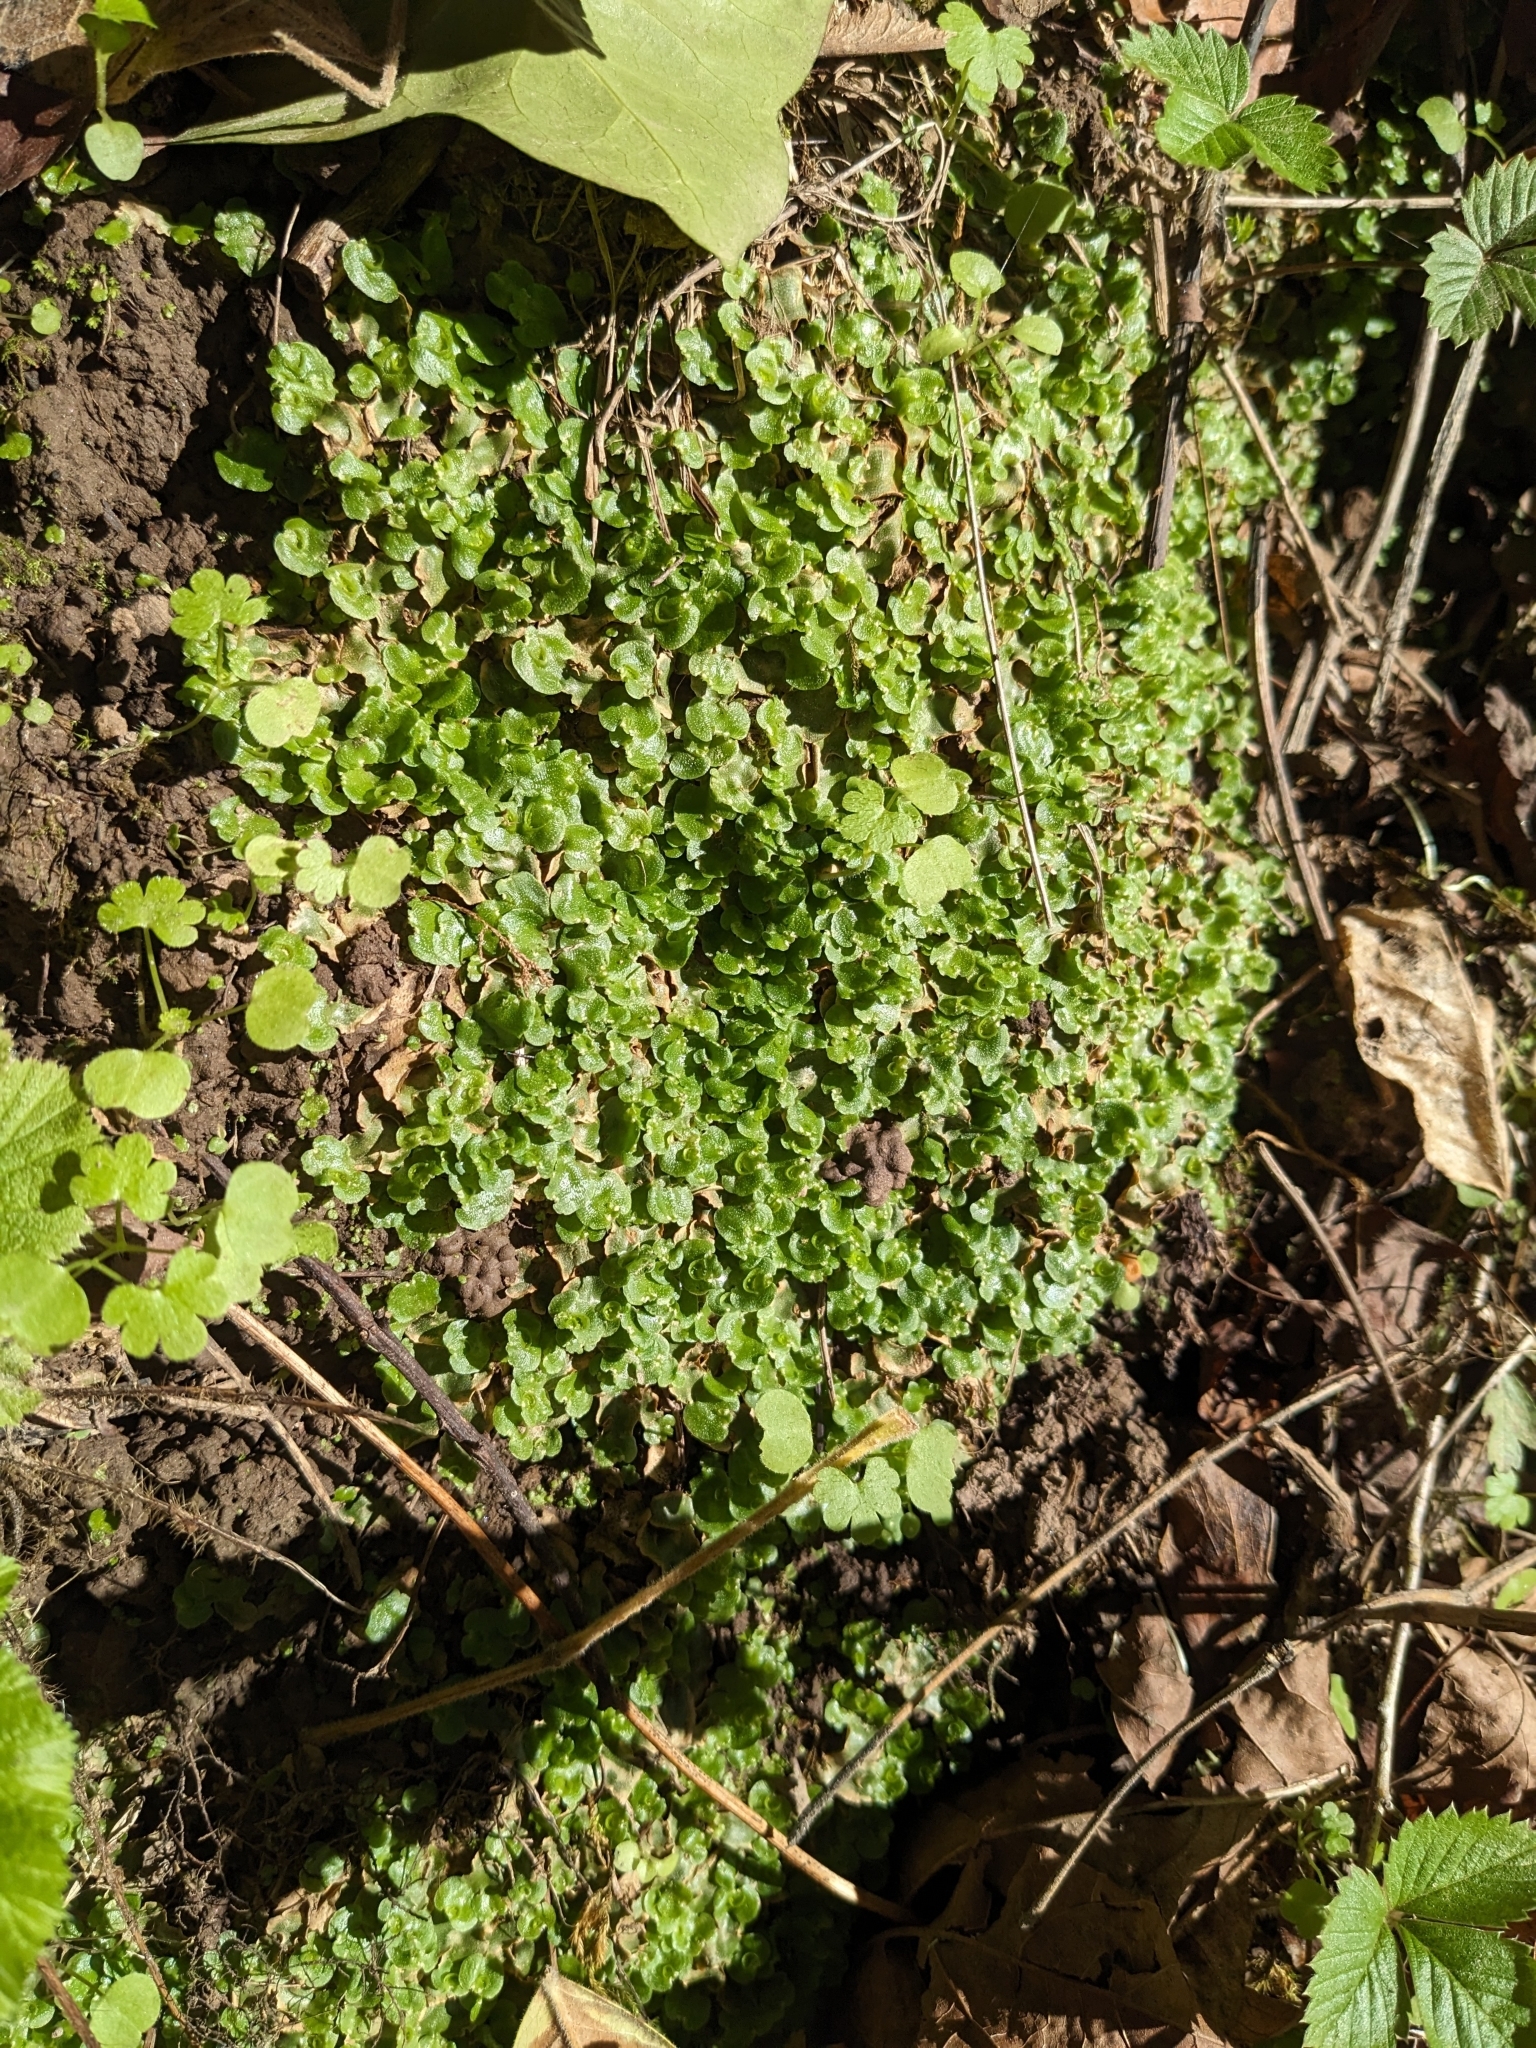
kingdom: Plantae
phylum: Marchantiophyta
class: Marchantiopsida
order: Lunulariales
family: Lunulariaceae
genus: Lunularia
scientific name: Lunularia cruciata
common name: Crescent-cup liverwort
